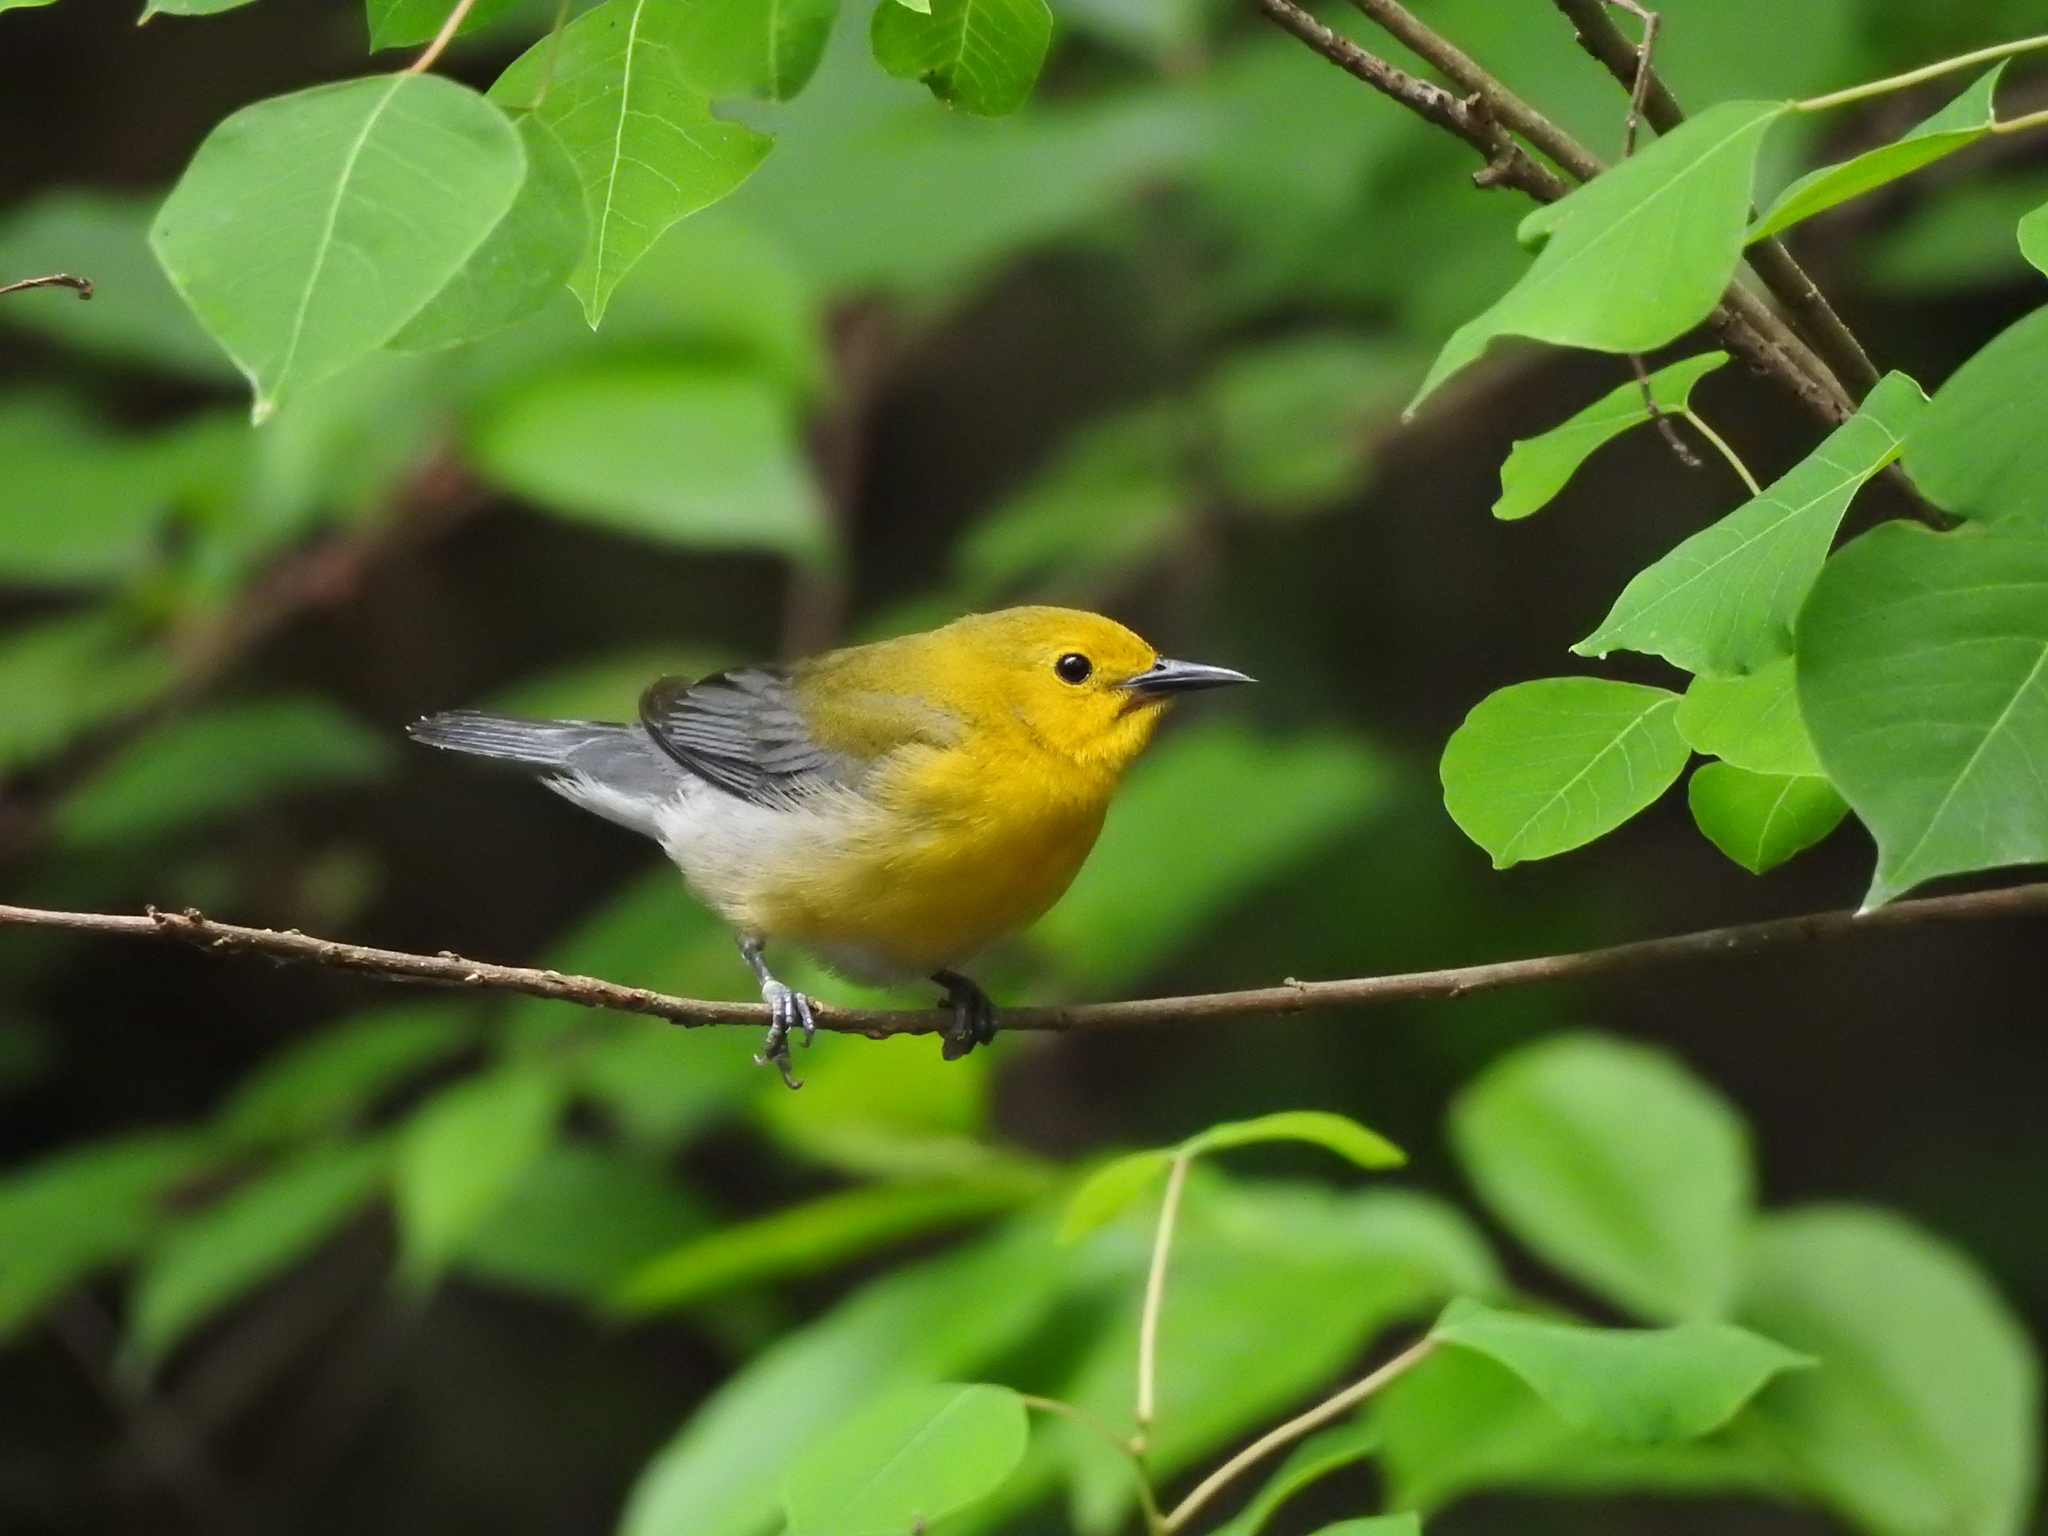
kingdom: Animalia
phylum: Chordata
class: Aves
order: Passeriformes
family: Parulidae
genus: Protonotaria
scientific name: Protonotaria citrea
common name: Prothonotary warbler
